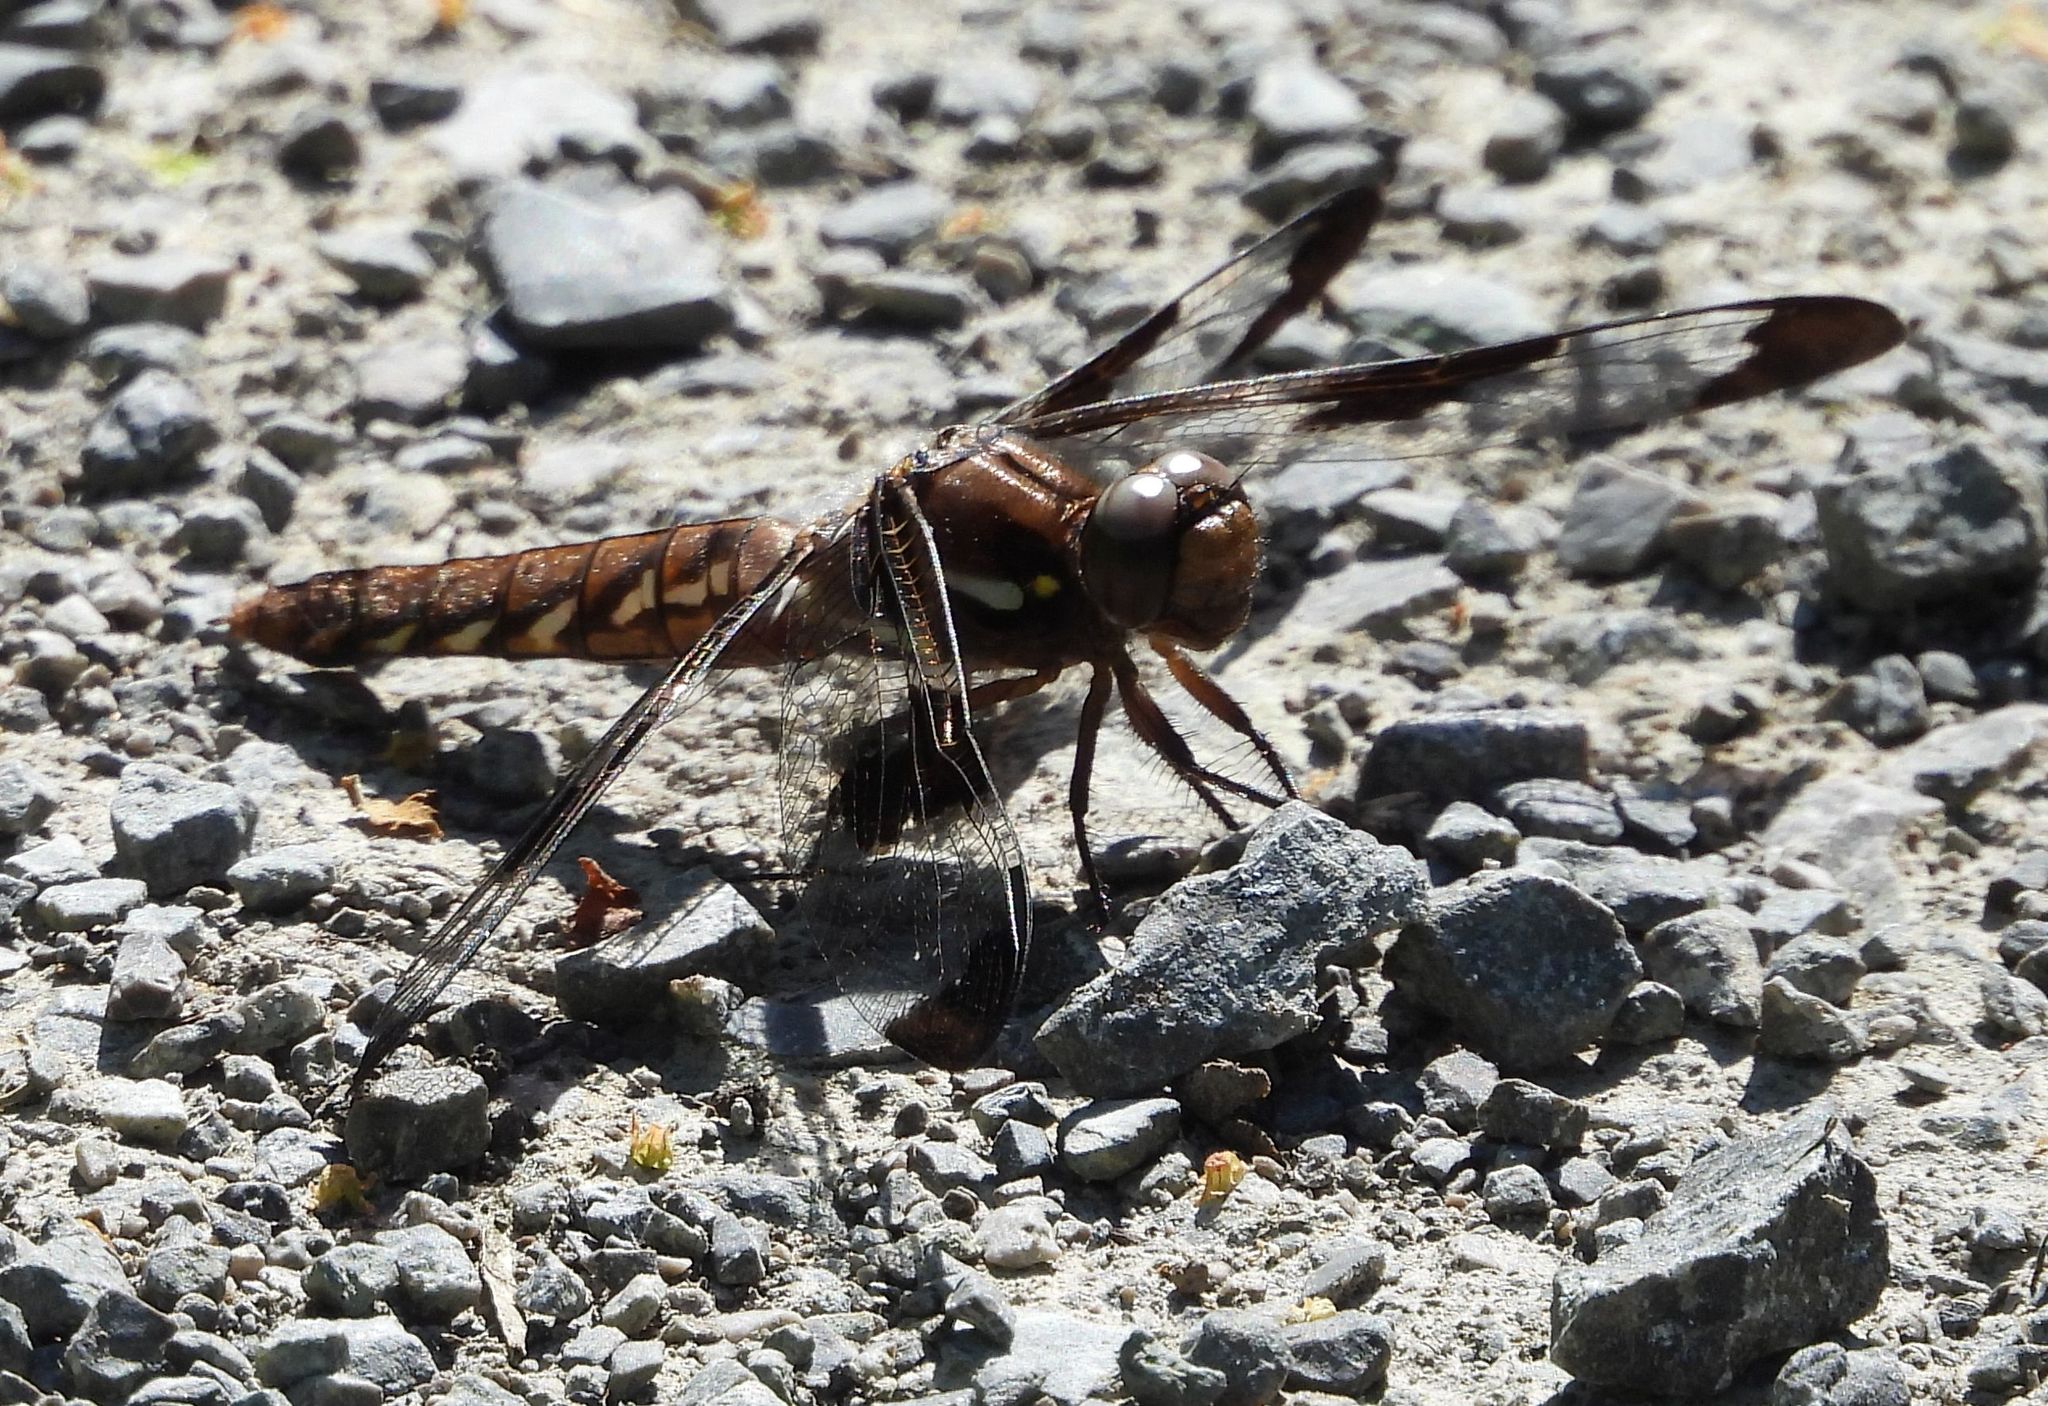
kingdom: Animalia
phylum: Arthropoda
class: Insecta
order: Odonata
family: Libellulidae
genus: Plathemis
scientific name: Plathemis lydia
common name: Common whitetail
